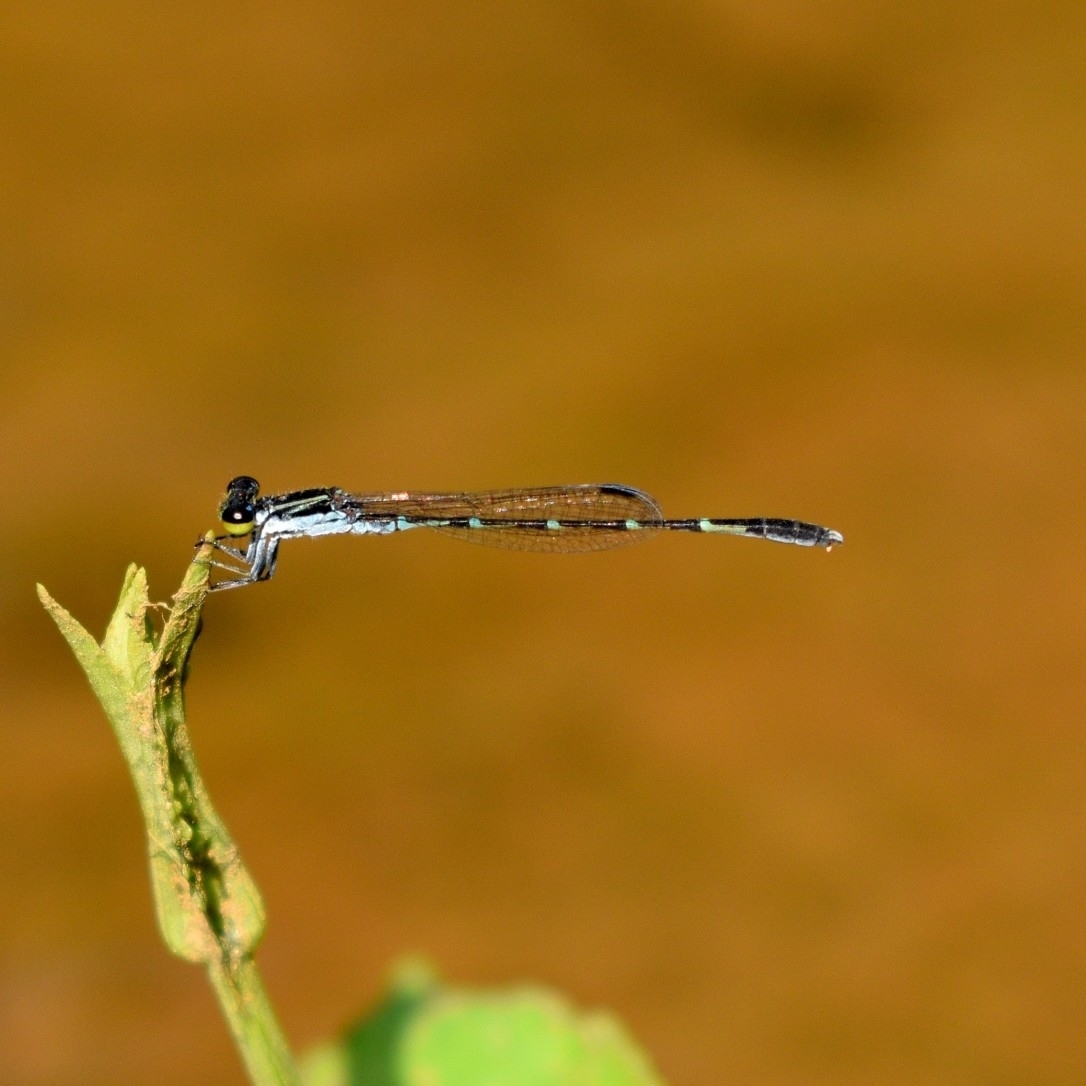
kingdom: Animalia
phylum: Arthropoda
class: Insecta
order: Odonata
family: Coenagrionidae
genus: Agriocnemis
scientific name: Agriocnemis splendidissima
